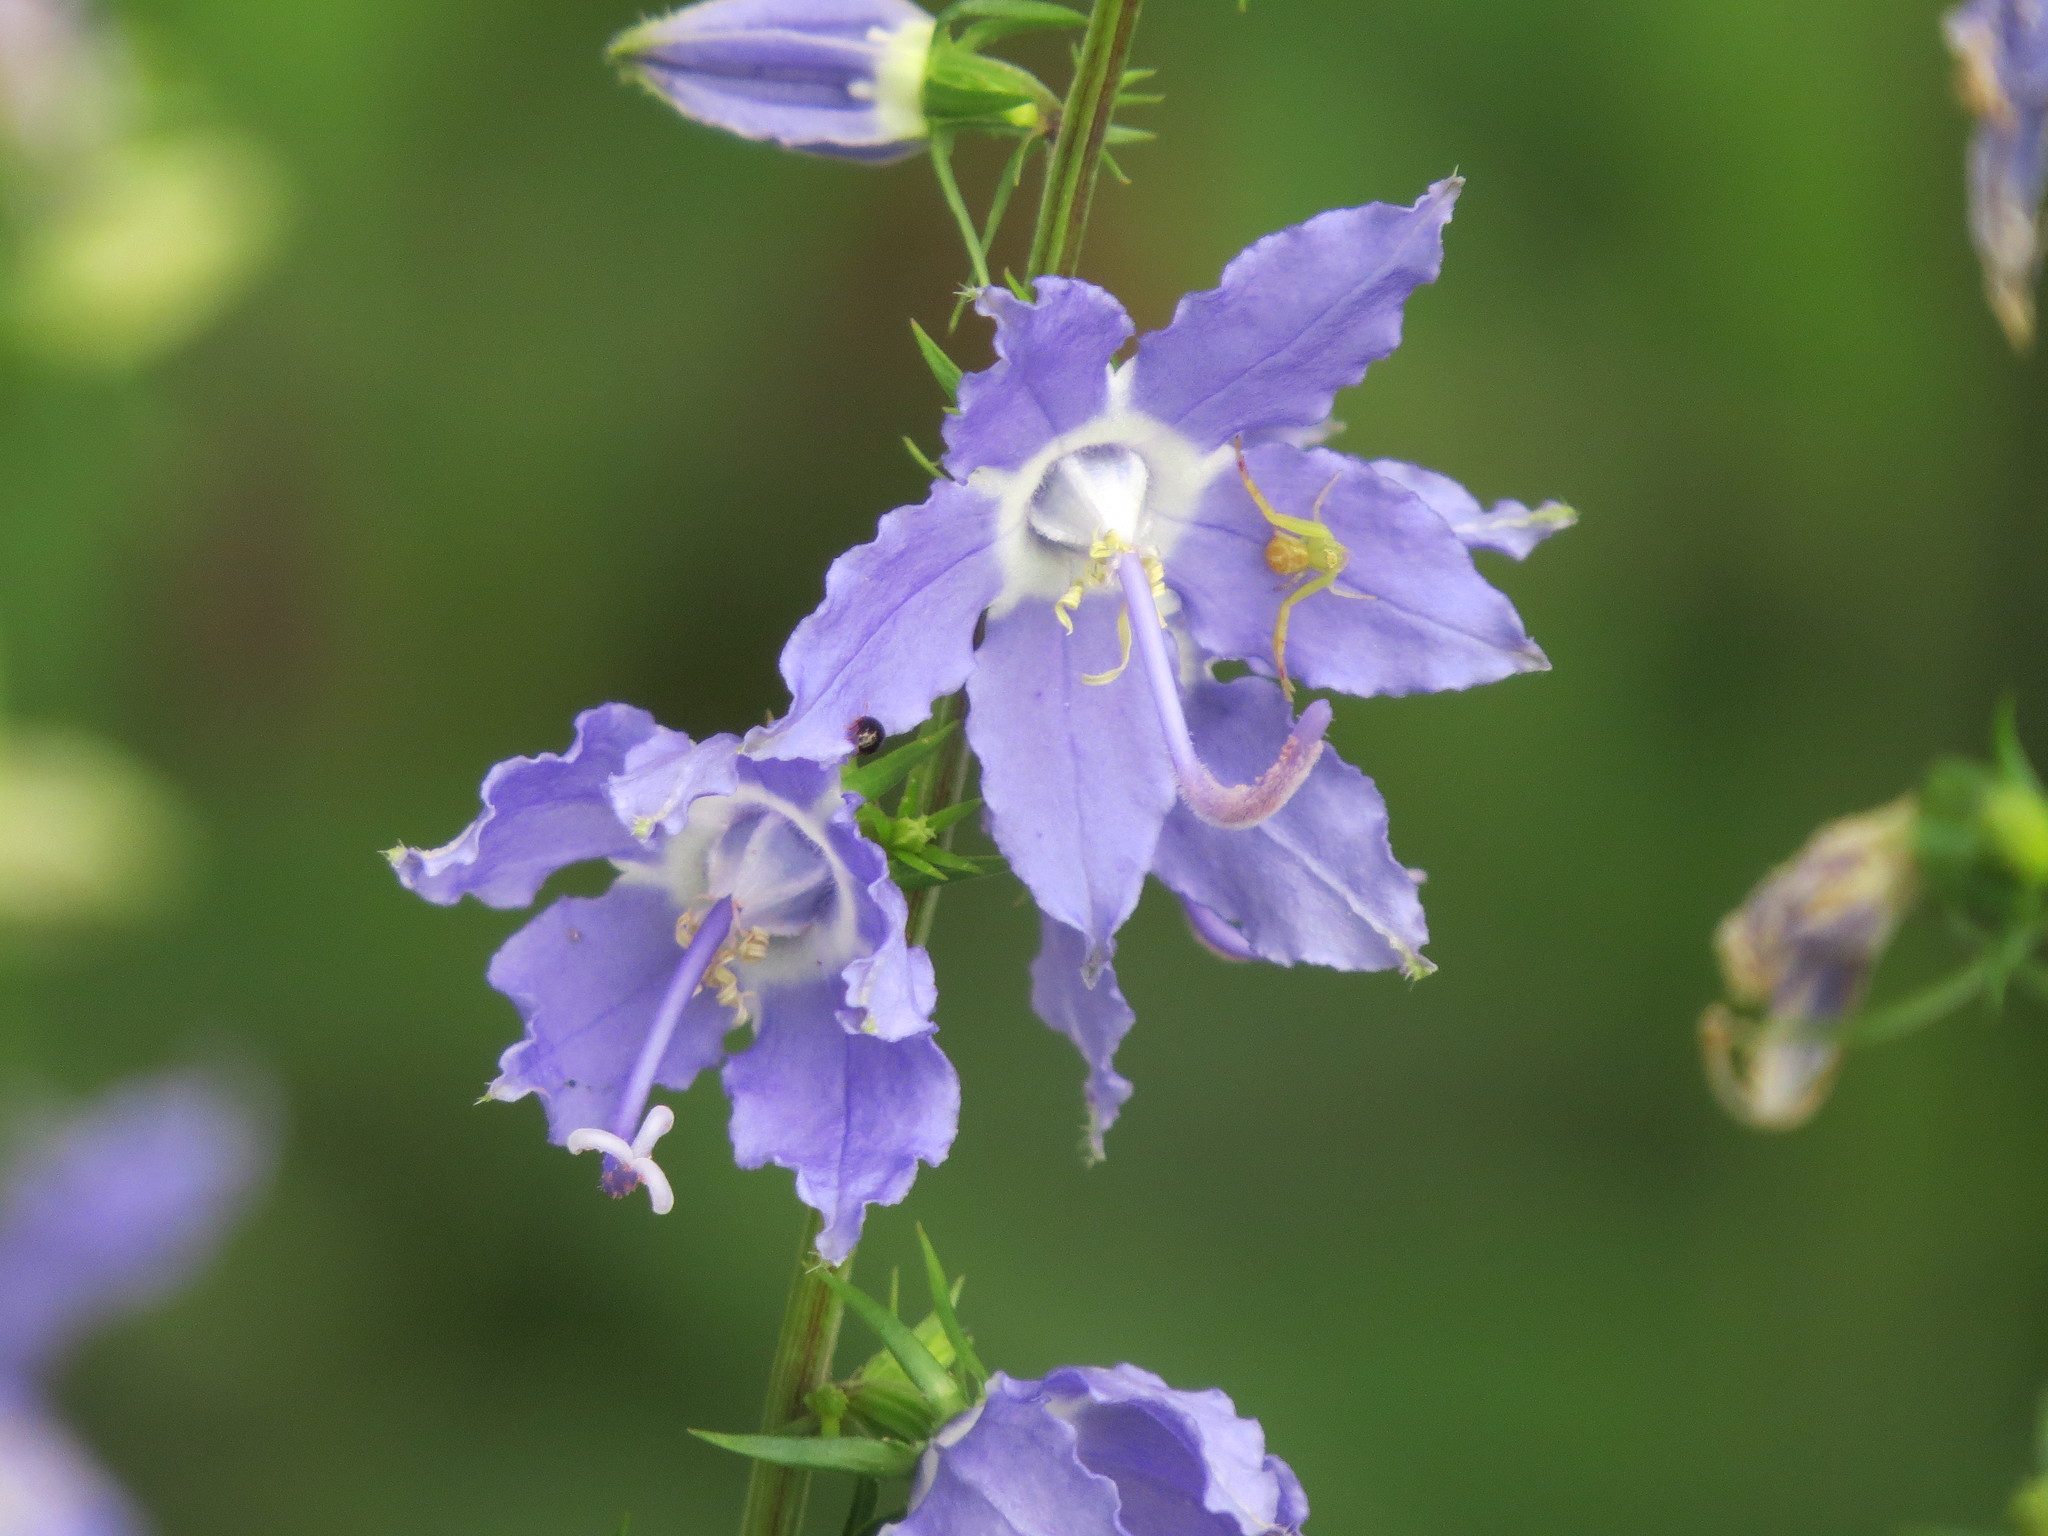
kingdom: Plantae
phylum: Tracheophyta
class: Magnoliopsida
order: Asterales
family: Campanulaceae
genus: Campanulastrum
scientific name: Campanulastrum americanum
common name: American bellflower
